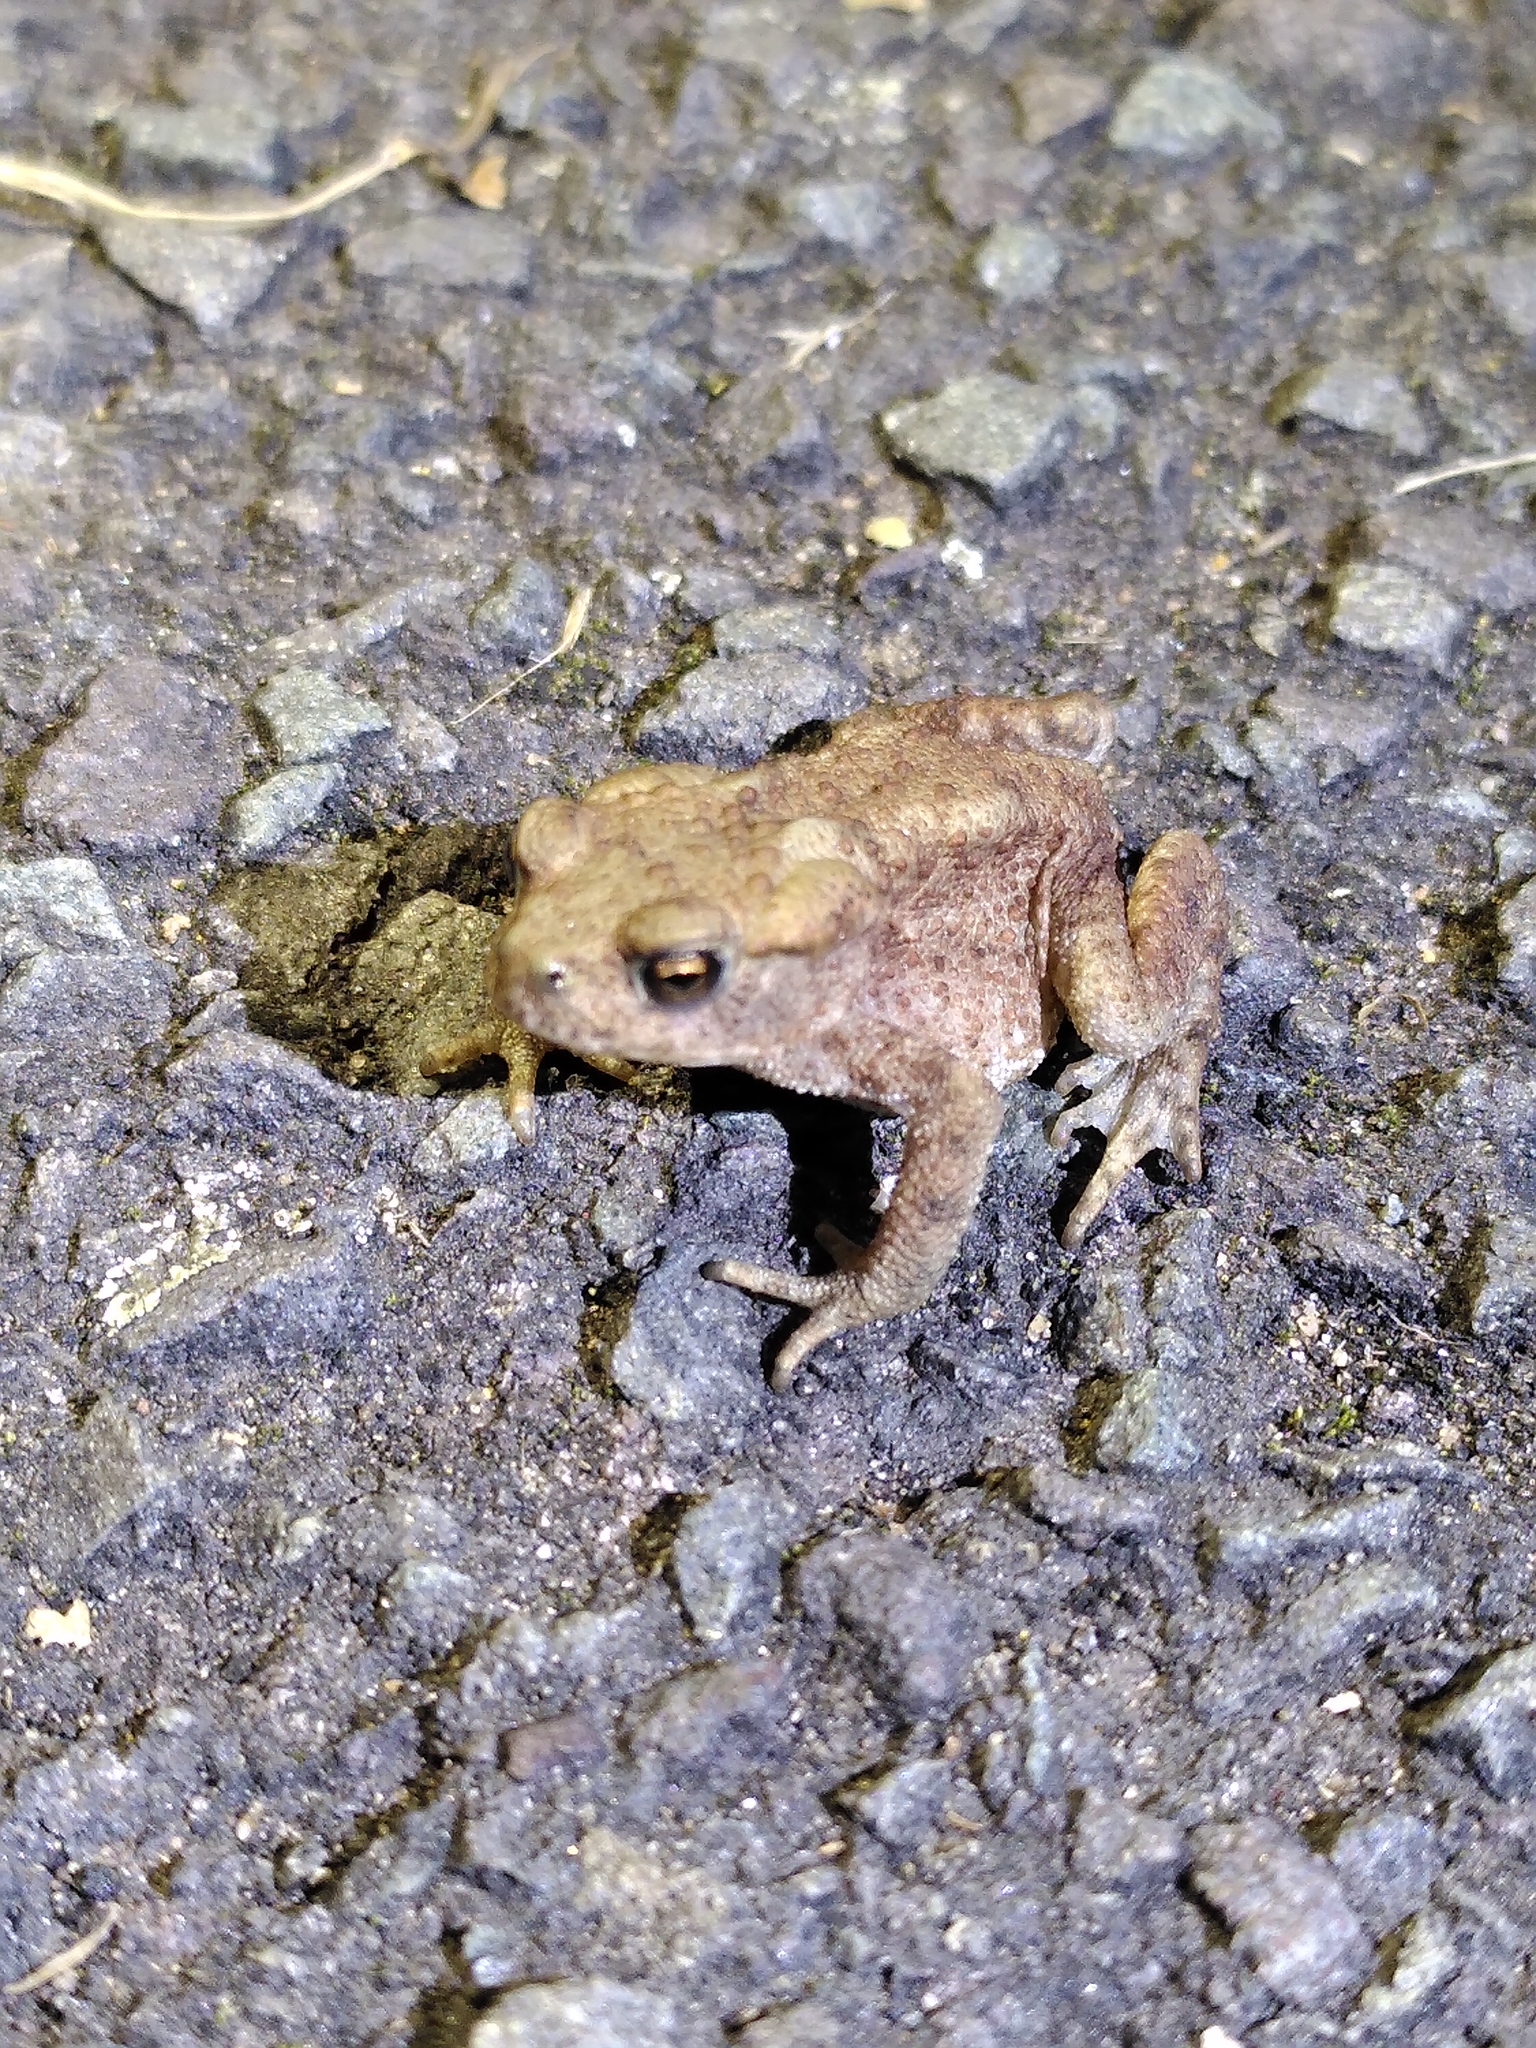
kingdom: Animalia
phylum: Chordata
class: Amphibia
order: Anura
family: Bufonidae
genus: Bufo
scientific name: Bufo bufo
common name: Common toad
